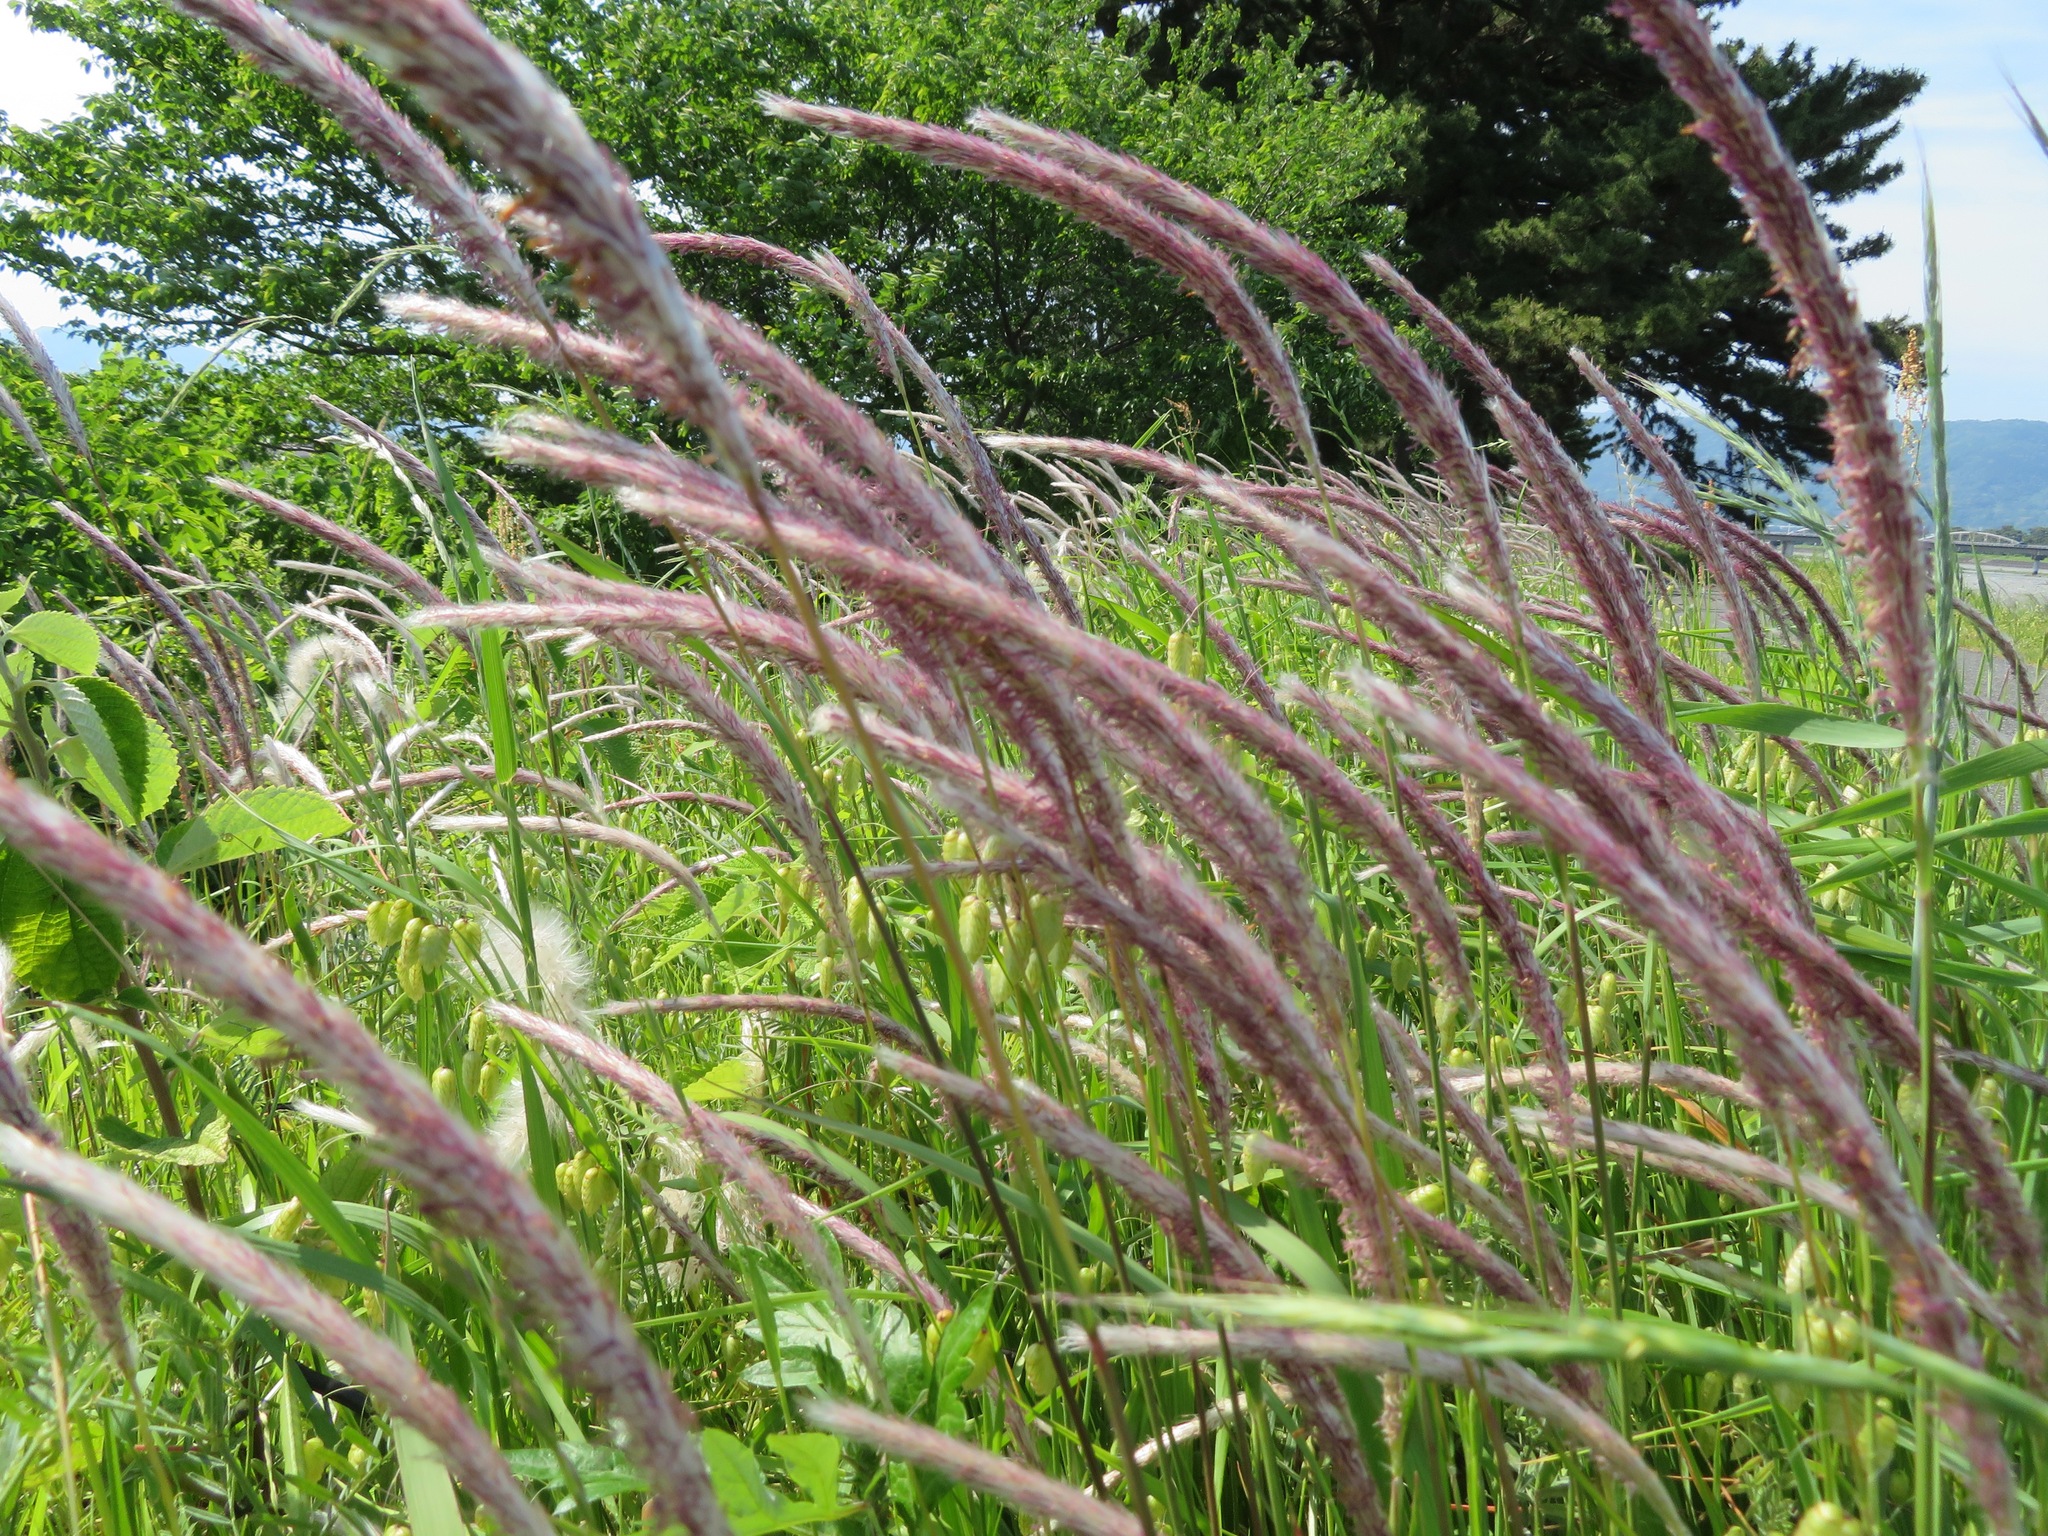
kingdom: Plantae
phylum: Tracheophyta
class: Liliopsida
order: Poales
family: Poaceae
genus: Imperata
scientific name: Imperata cylindrica
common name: Cogongrass
